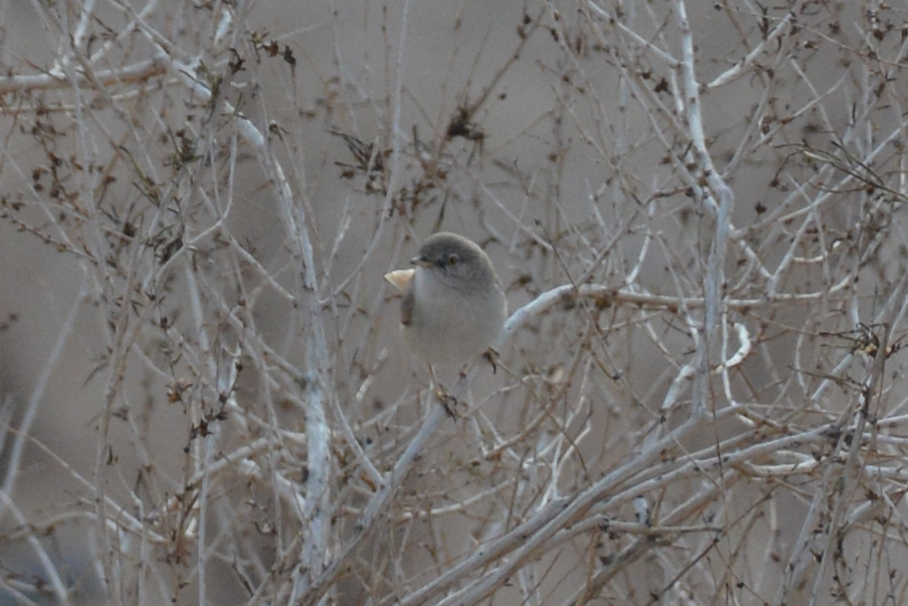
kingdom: Animalia
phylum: Chordata
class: Aves
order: Passeriformes
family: Sylviidae
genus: Sylvia
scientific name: Sylvia nana
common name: Asian desert warbler
